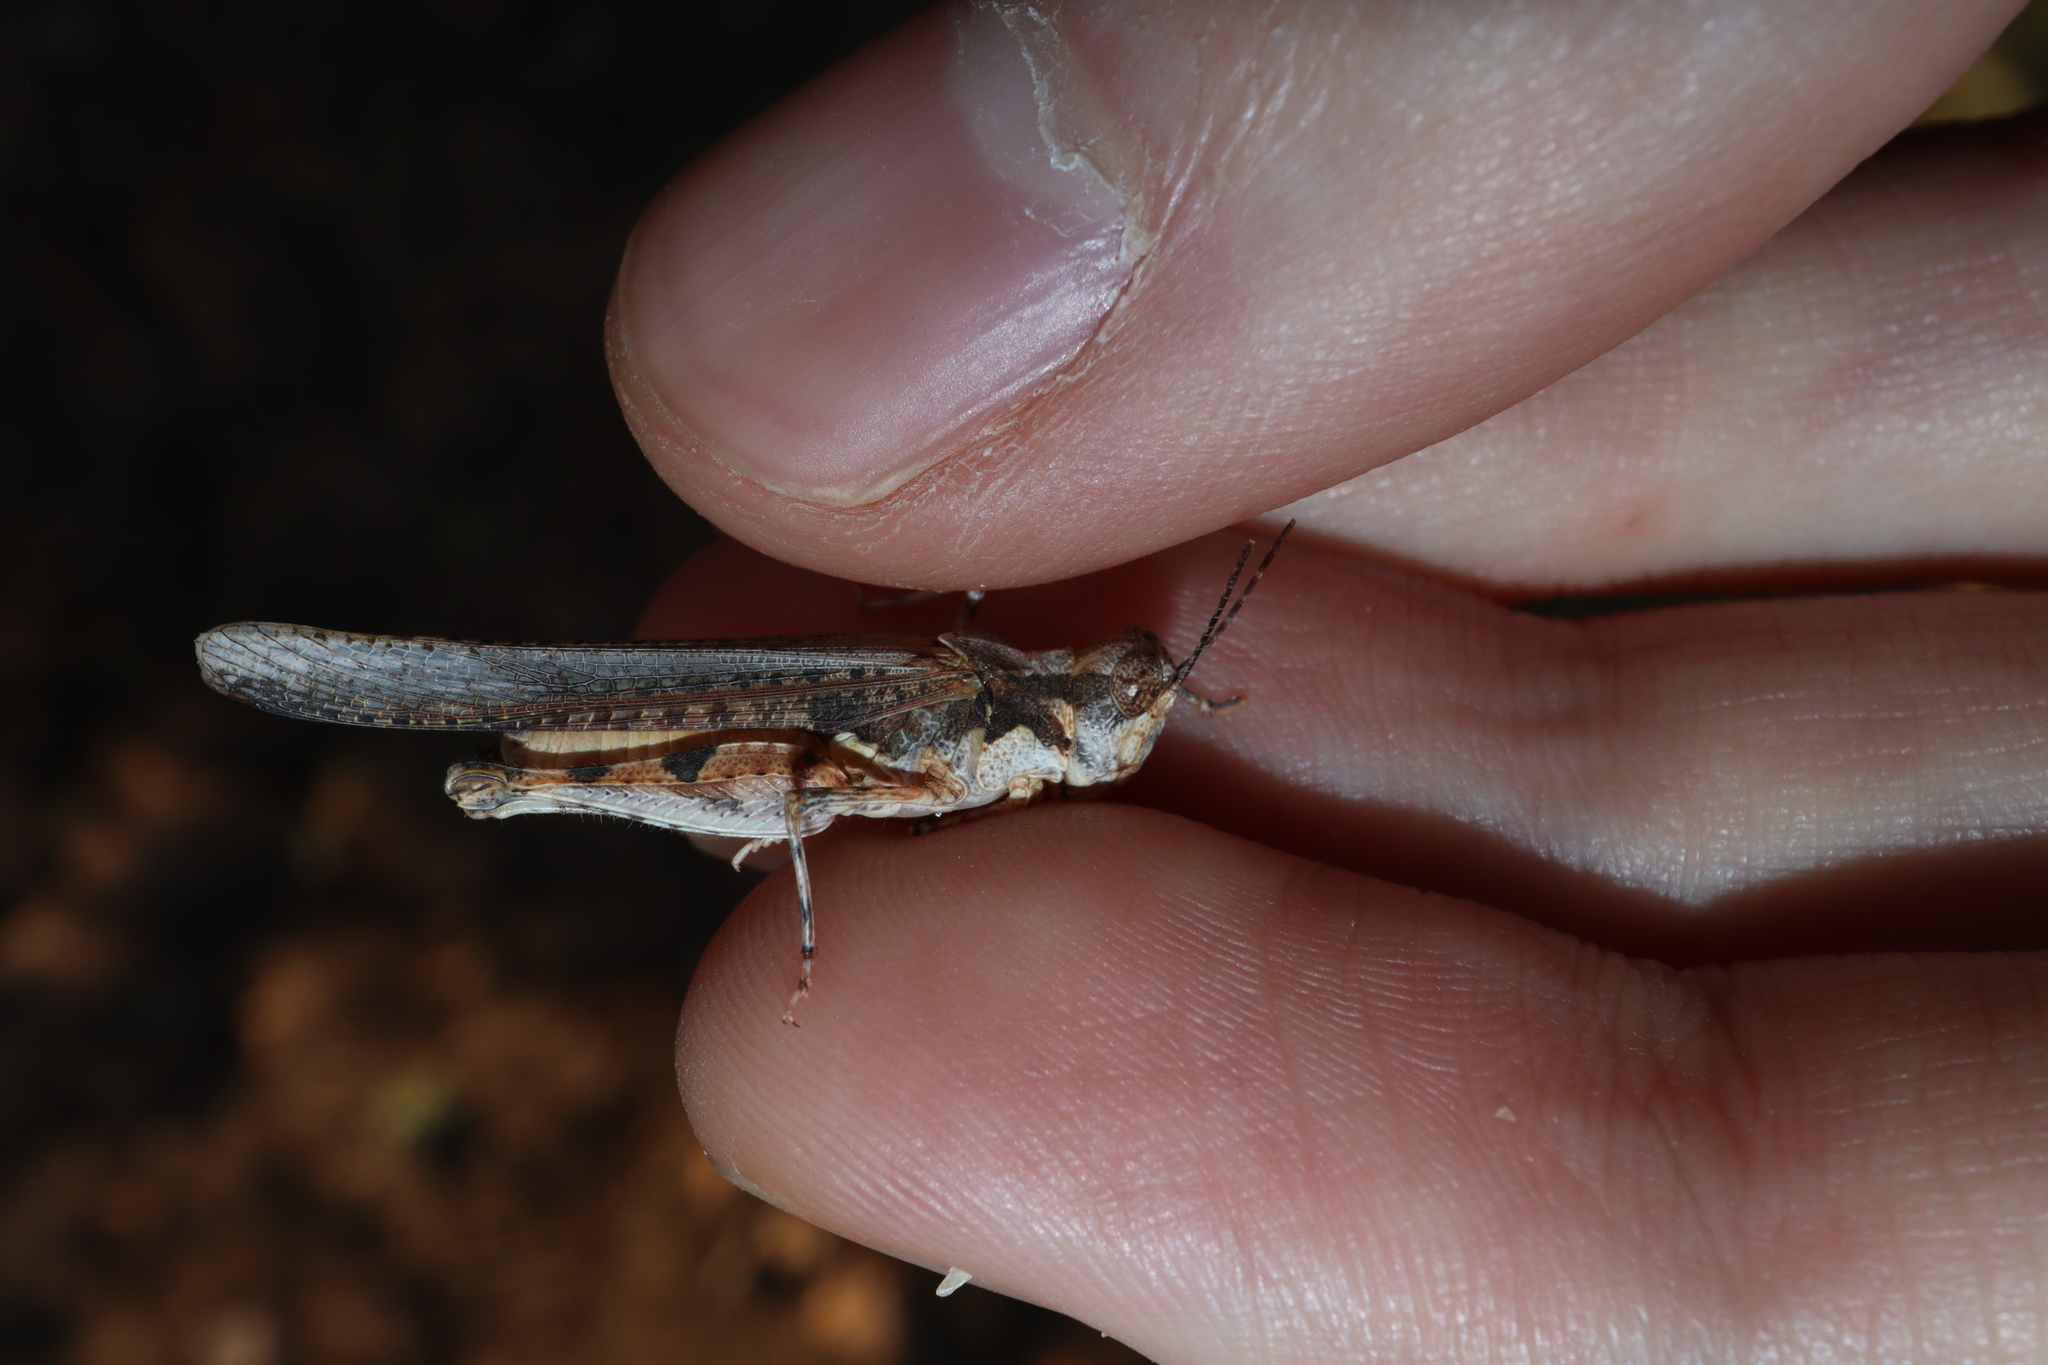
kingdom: Animalia
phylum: Arthropoda
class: Insecta
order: Orthoptera
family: Acrididae
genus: Pycnostictus
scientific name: Pycnostictus seriatus
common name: Common bandwing
